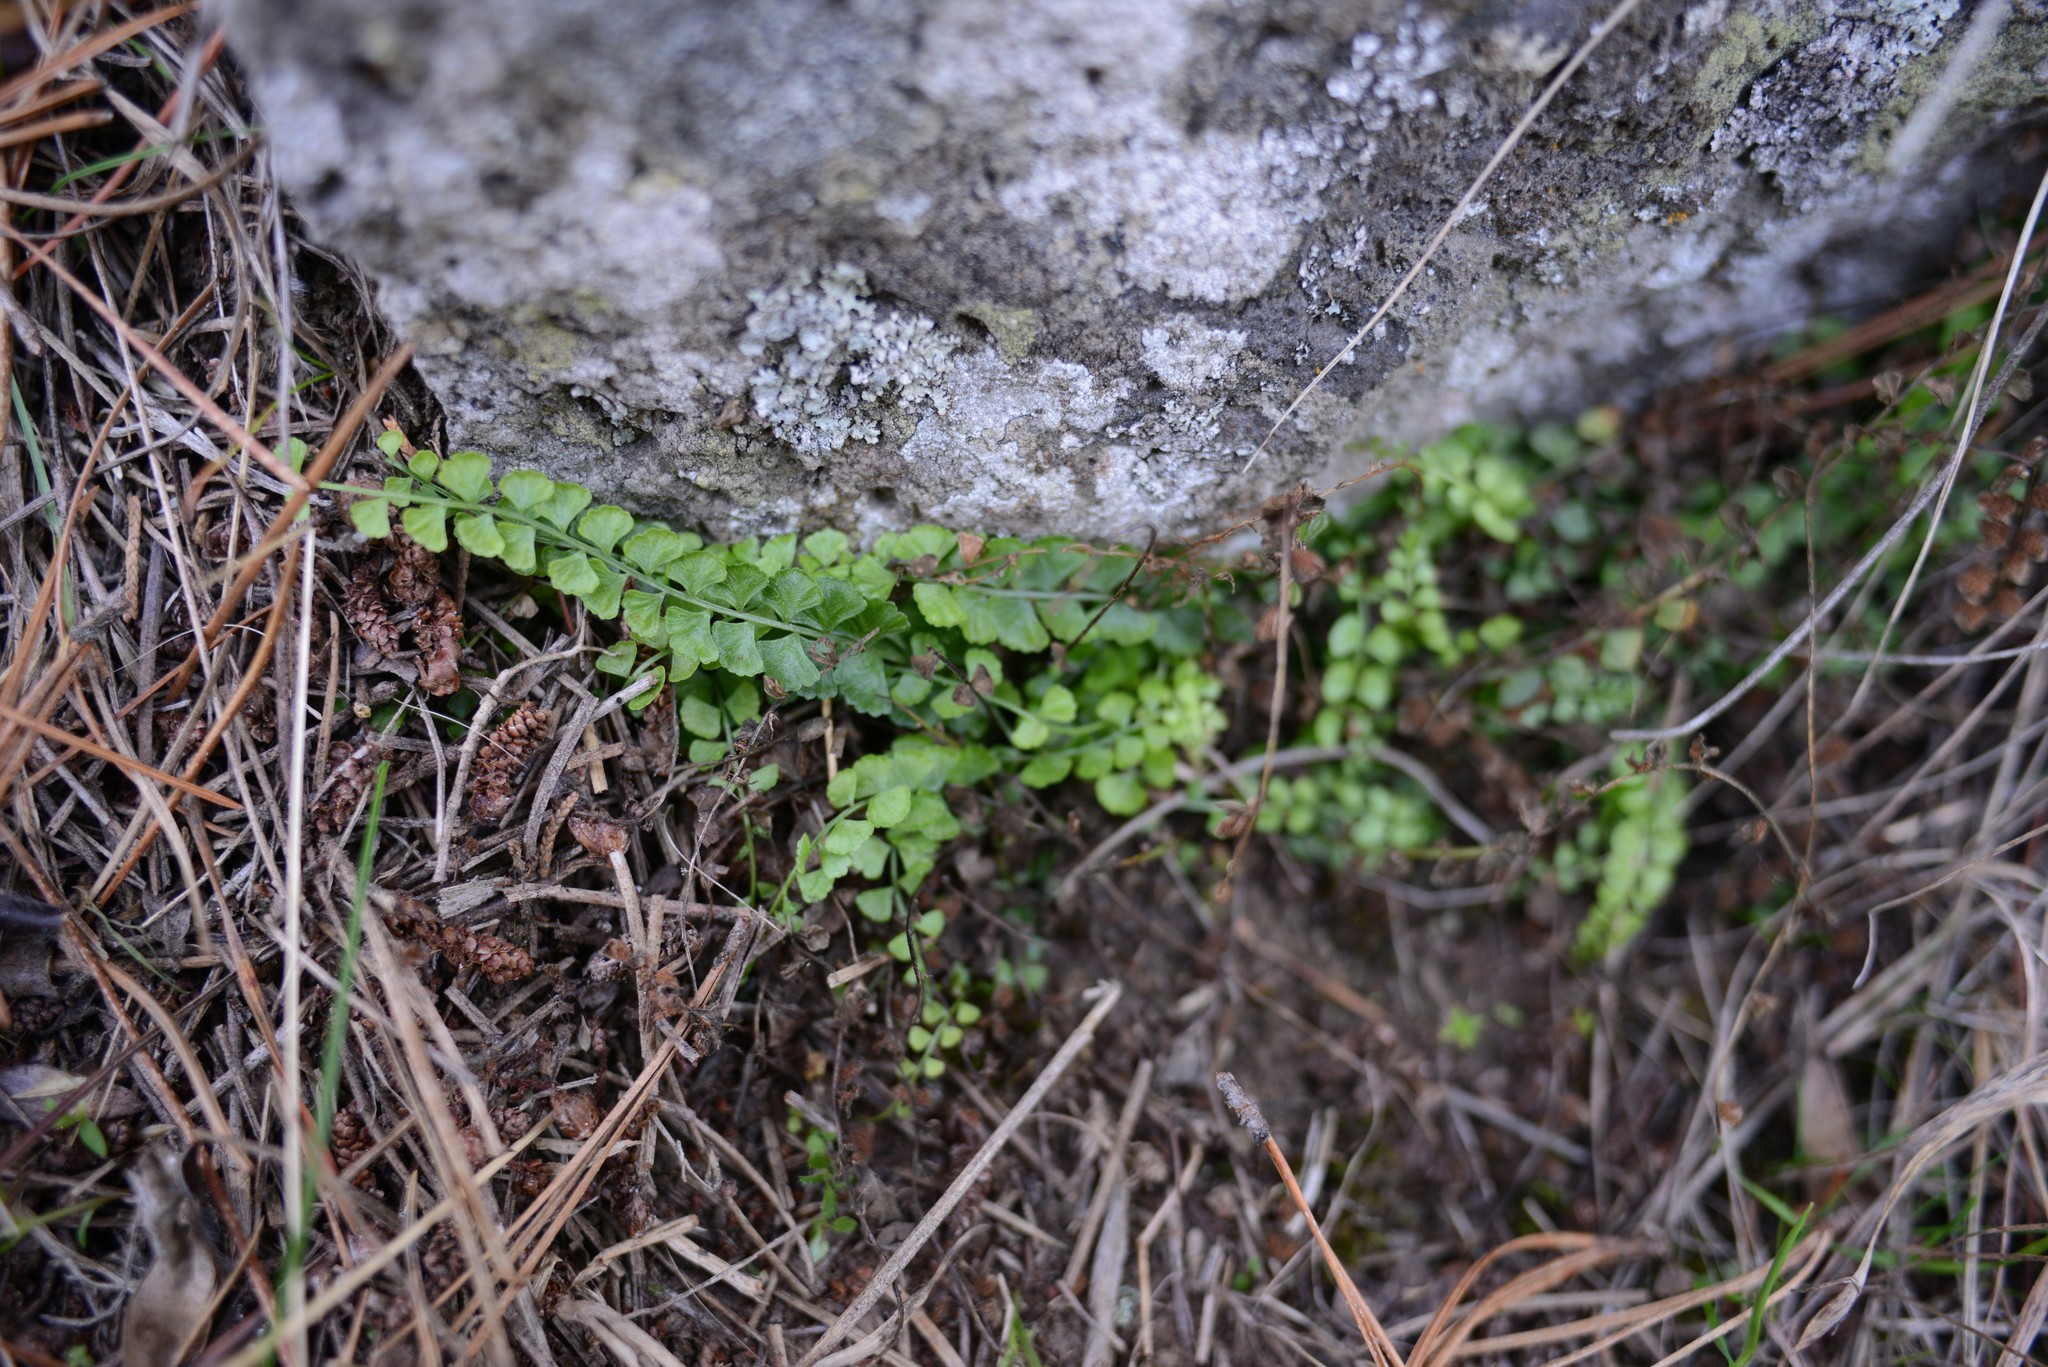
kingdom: Plantae
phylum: Tracheophyta
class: Polypodiopsida
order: Polypodiales
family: Aspleniaceae
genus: Asplenium
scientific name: Asplenium flabellifolium
